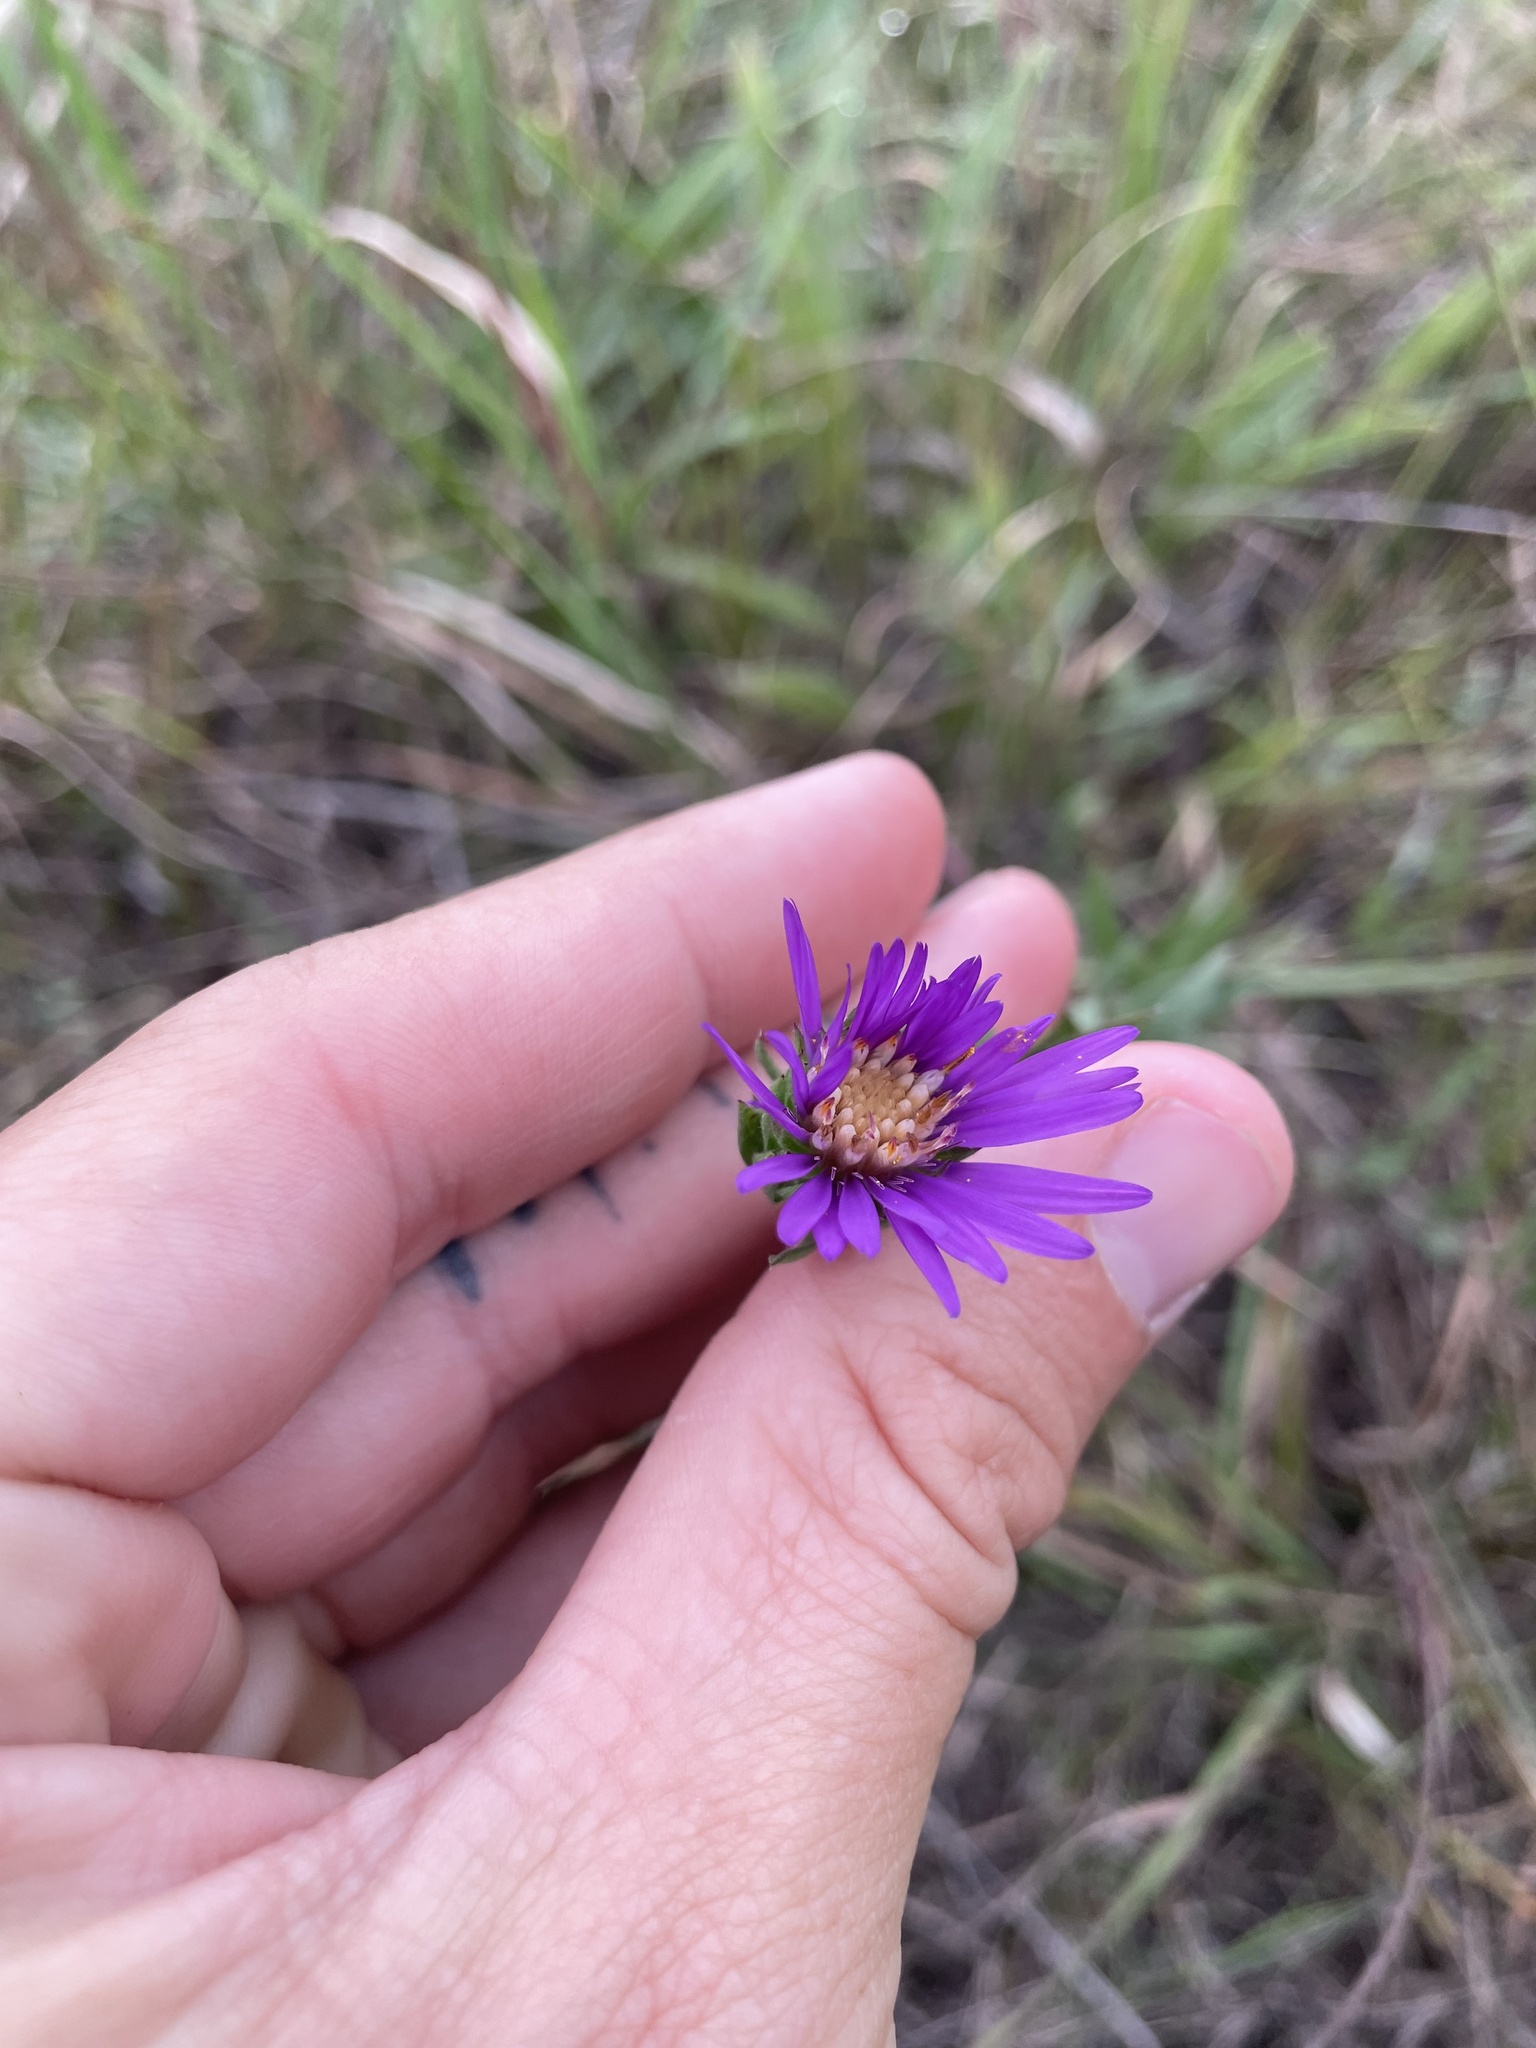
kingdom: Plantae
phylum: Tracheophyta
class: Magnoliopsida
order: Asterales
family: Asteraceae
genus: Symphyotrichum
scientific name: Symphyotrichum pratense
